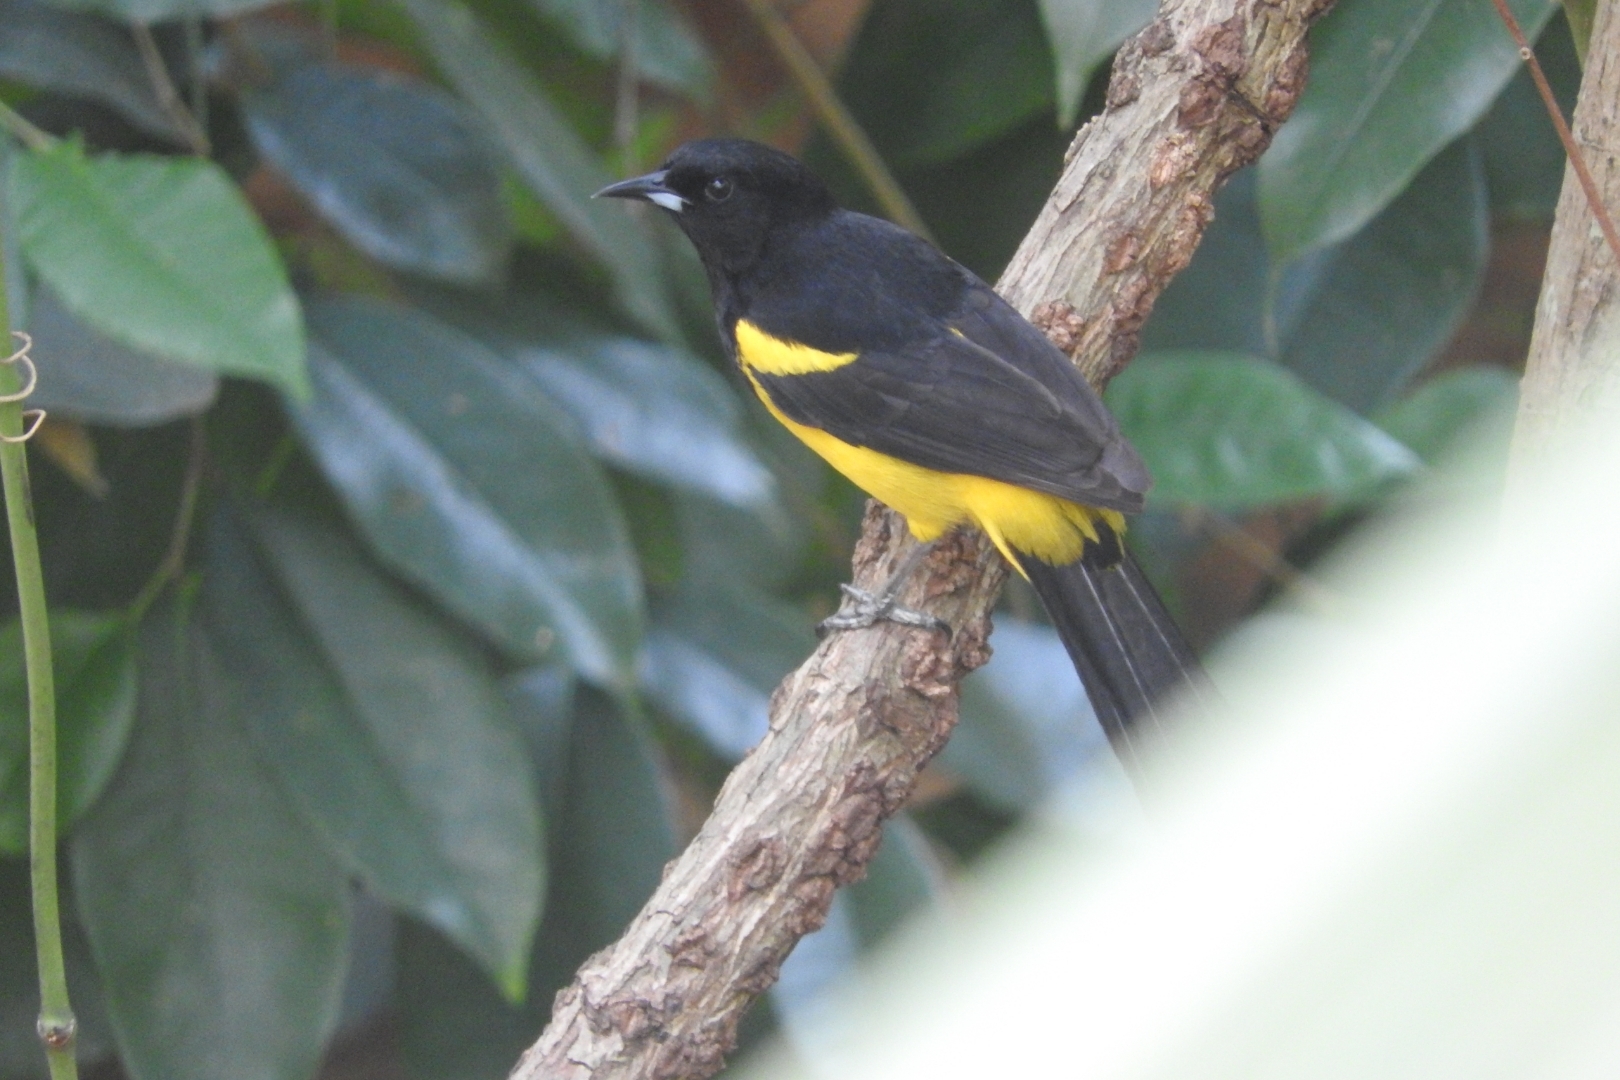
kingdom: Animalia
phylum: Chordata
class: Aves
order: Passeriformes
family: Icteridae
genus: Icterus
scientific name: Icterus prosthemelas
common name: Black-cowled oriole
